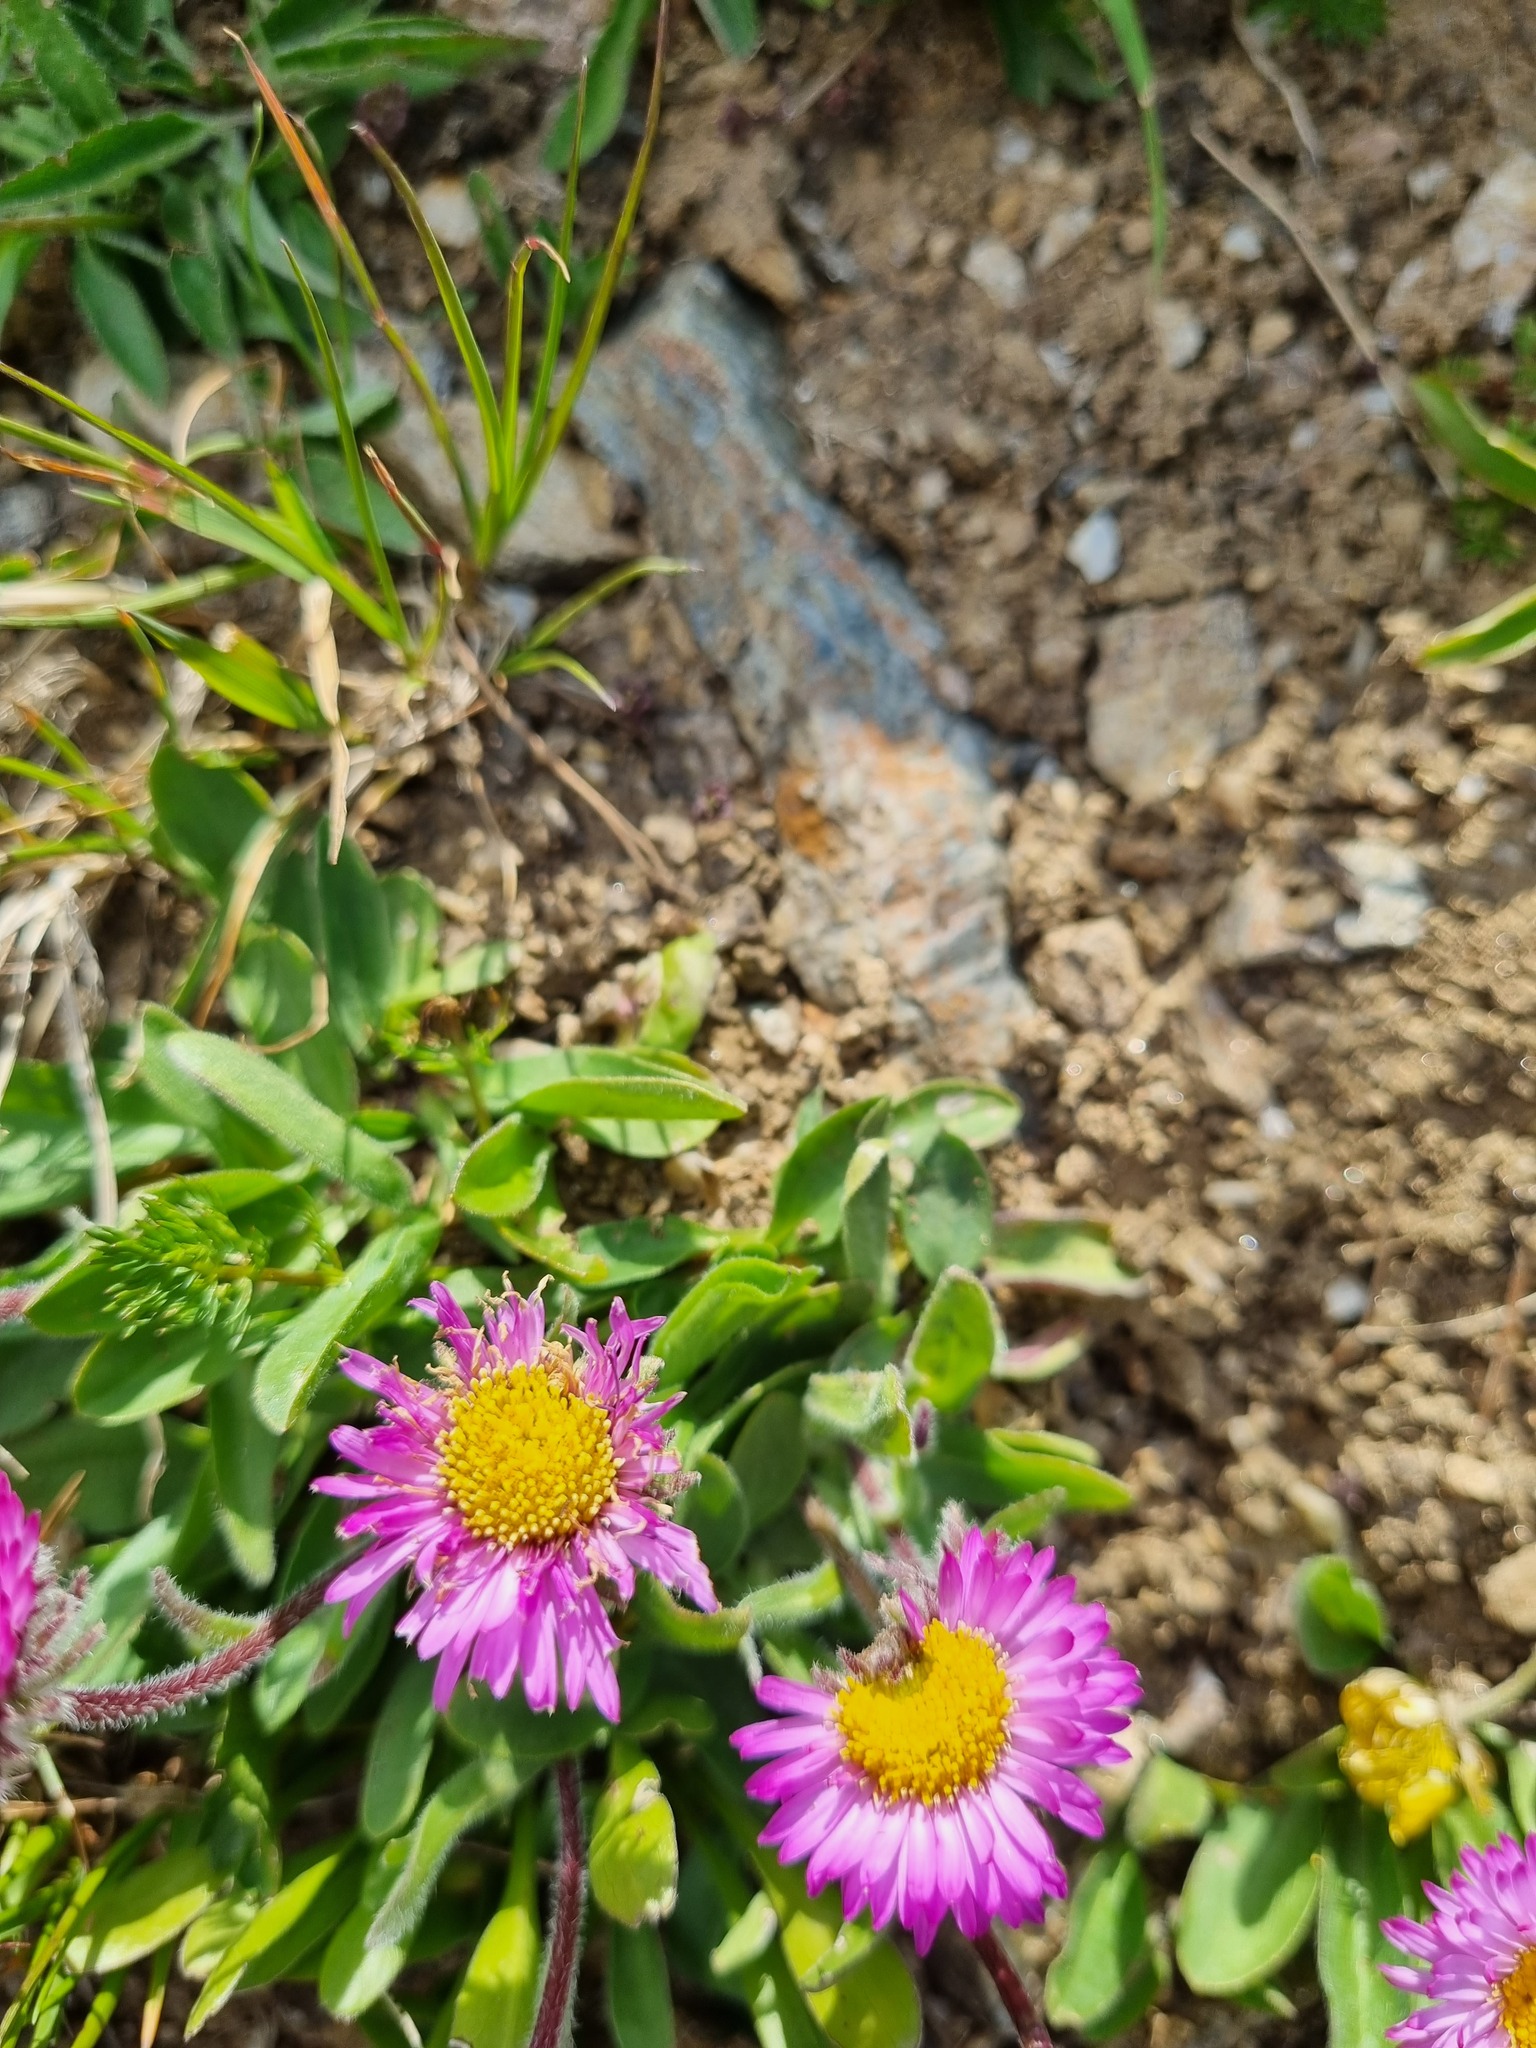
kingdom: Plantae
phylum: Tracheophyta
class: Magnoliopsida
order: Asterales
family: Asteraceae
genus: Erigeron
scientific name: Erigeron uniflorus
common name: Northern daisy
